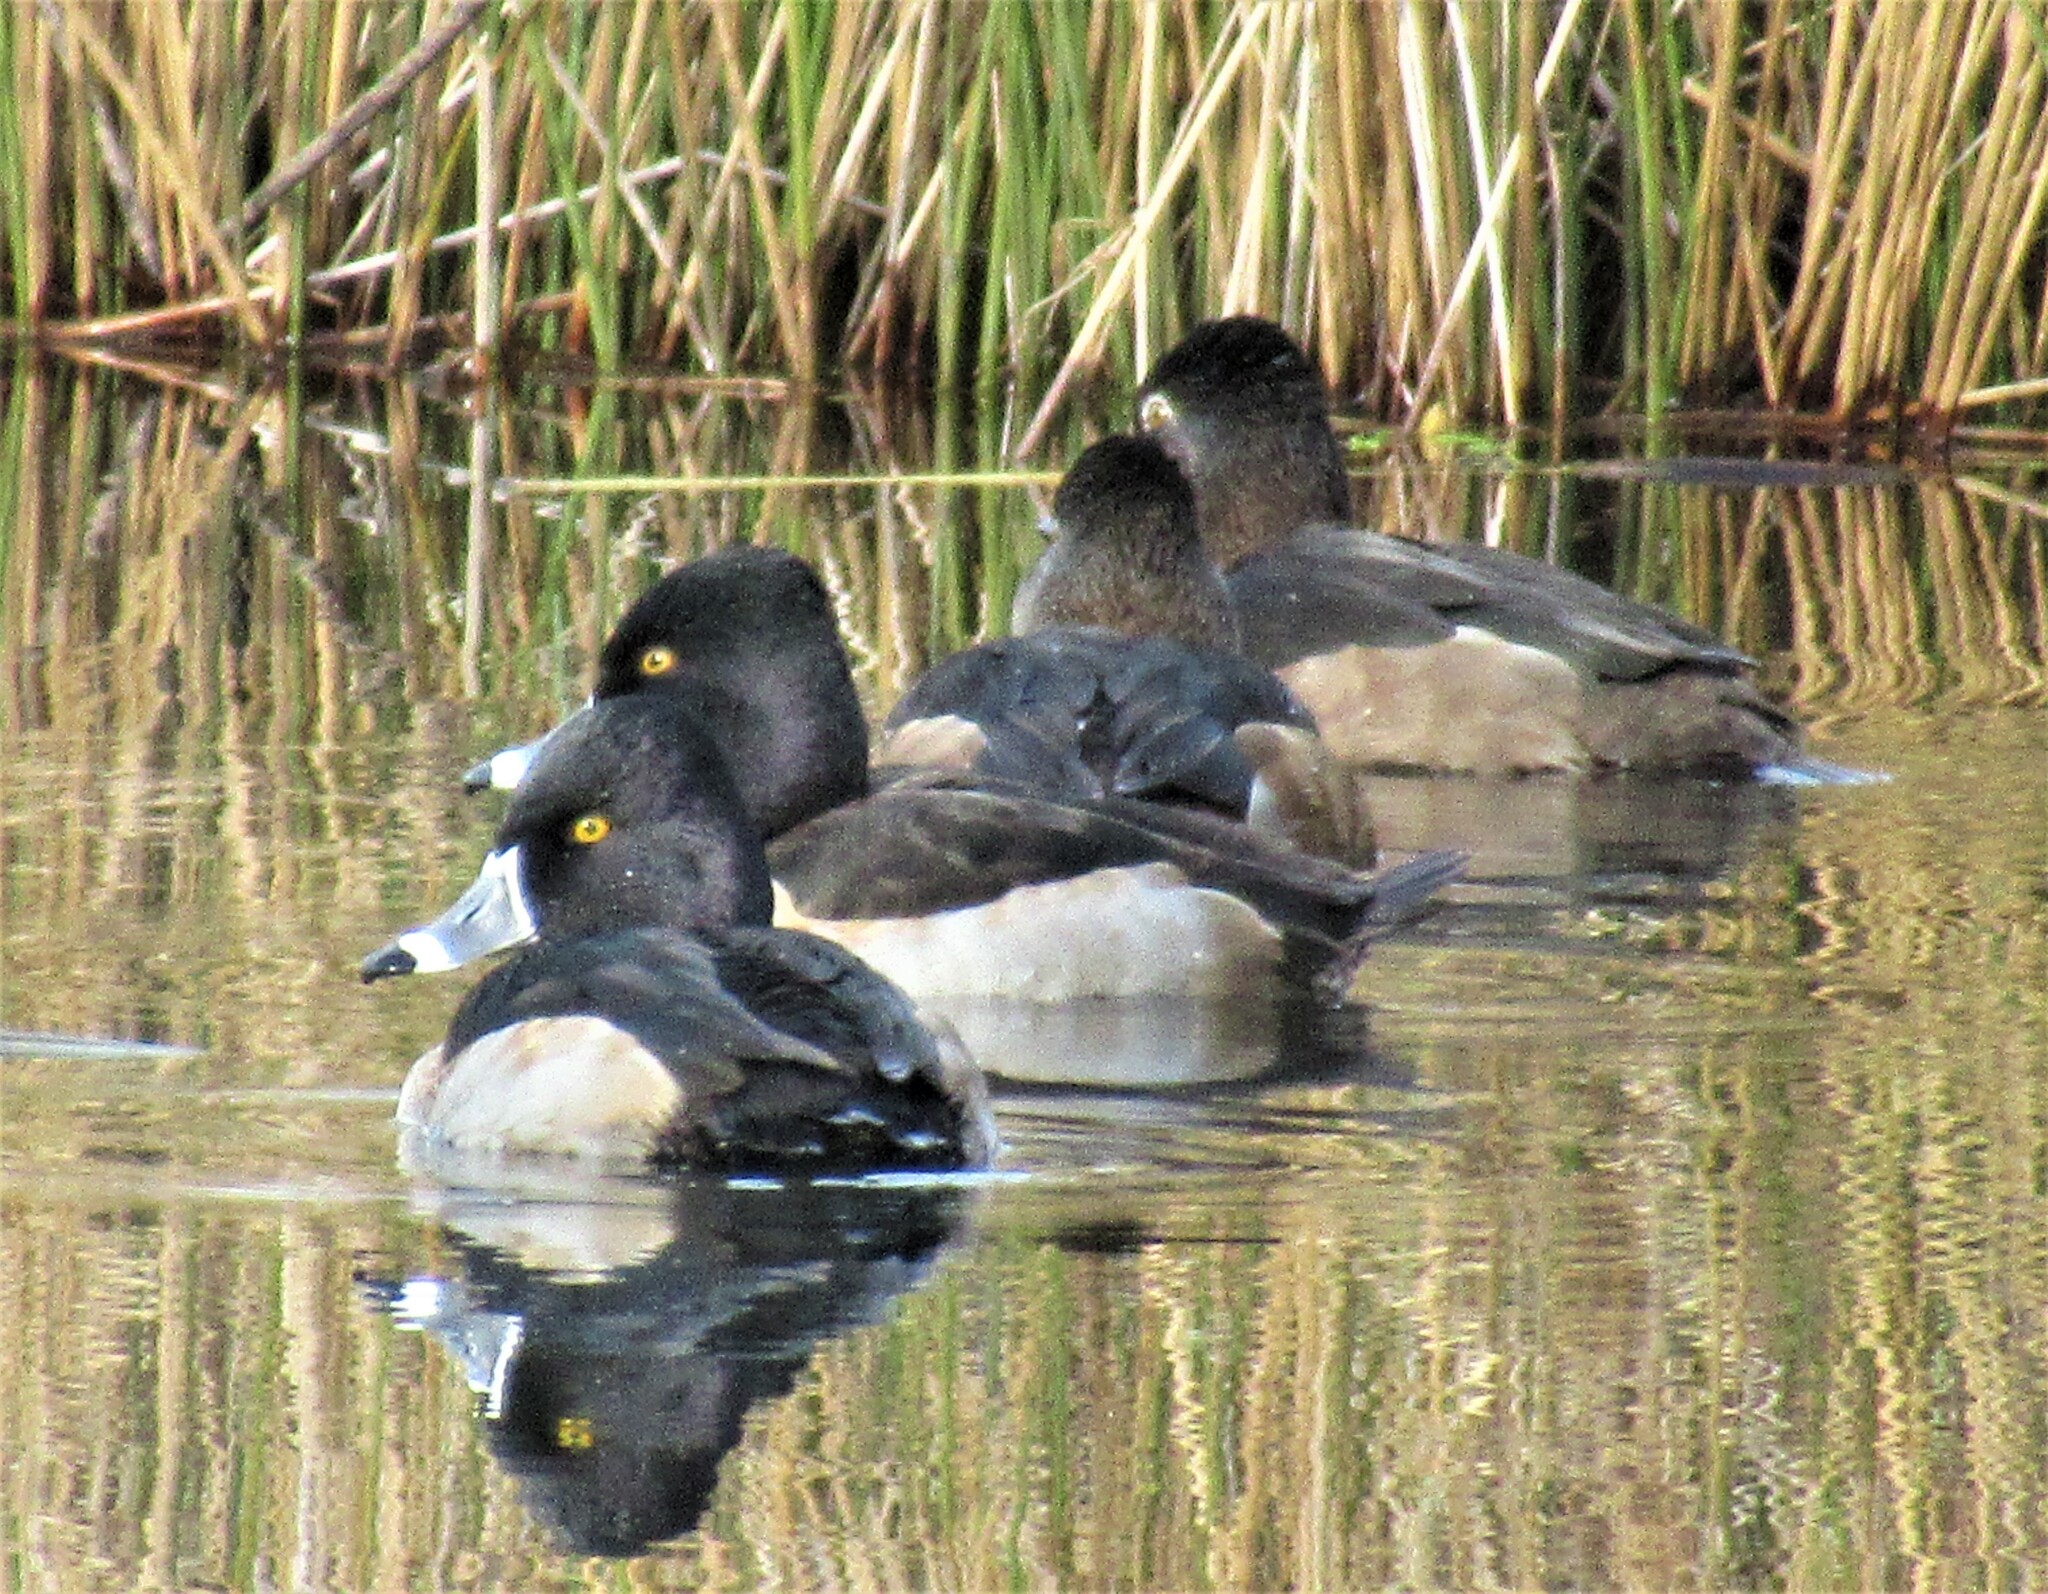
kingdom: Animalia
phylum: Chordata
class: Aves
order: Anseriformes
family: Anatidae
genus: Aythya
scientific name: Aythya collaris
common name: Ring-necked duck
